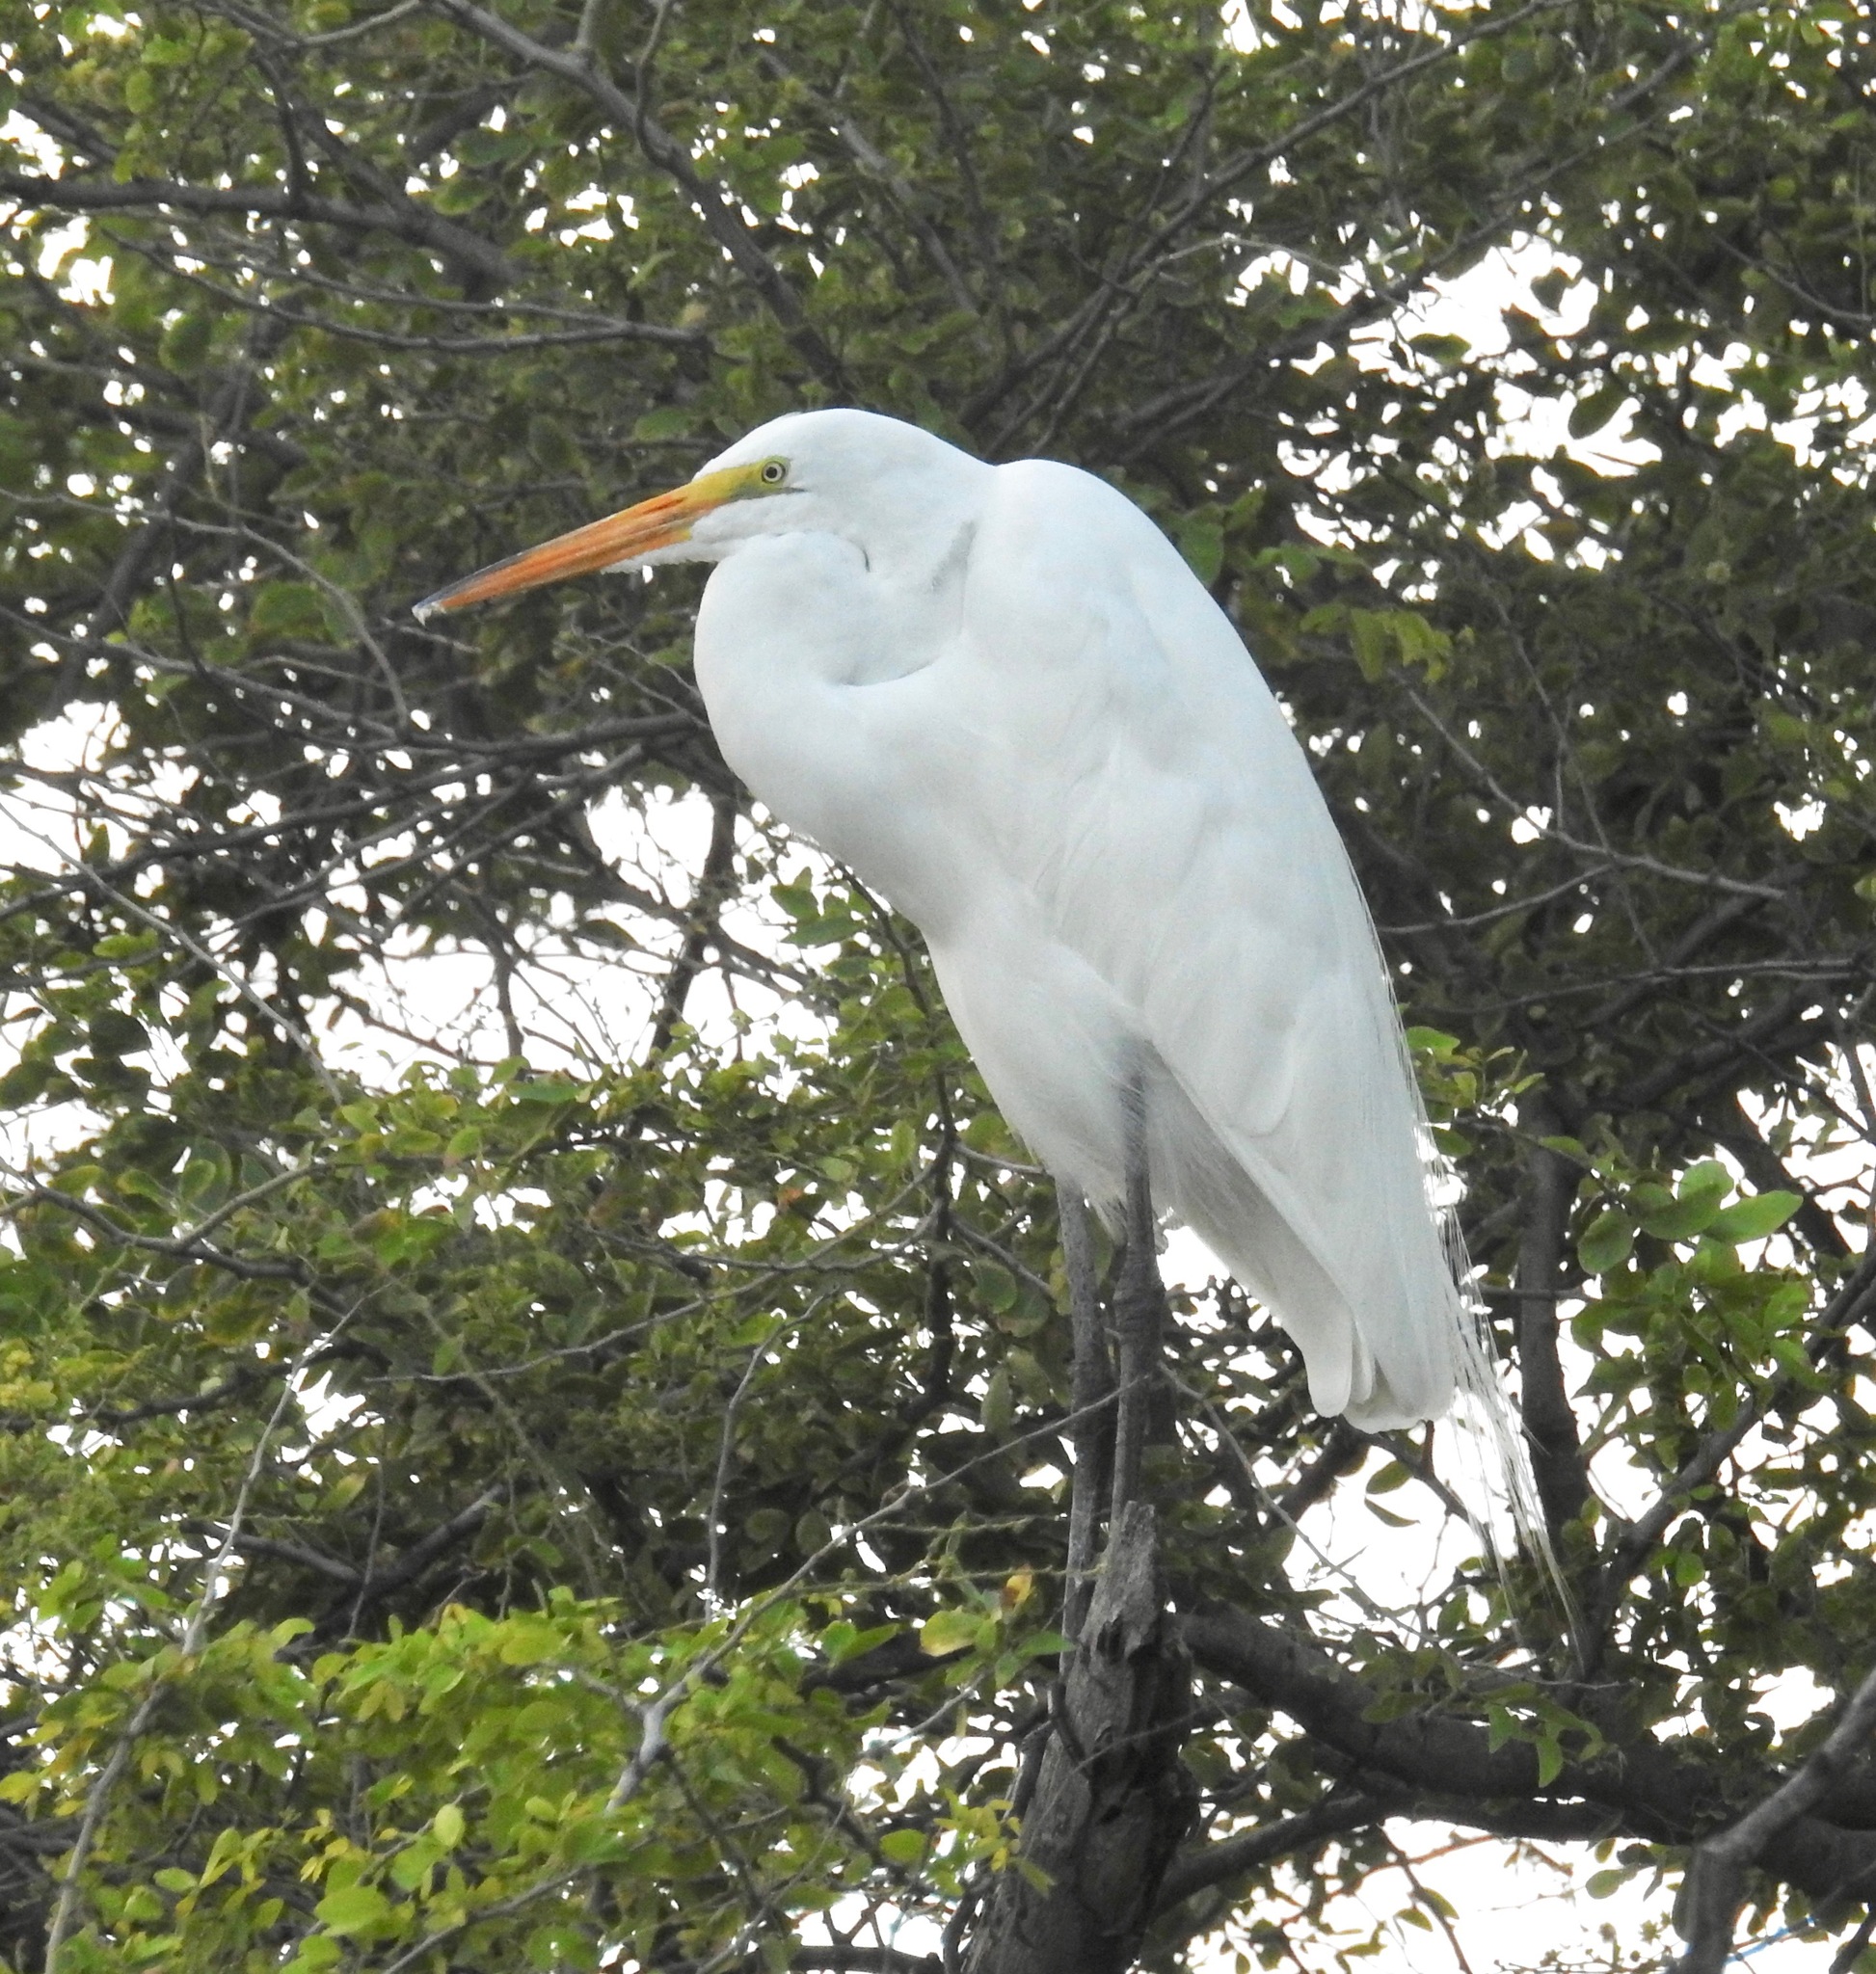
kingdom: Animalia
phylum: Chordata
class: Aves
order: Pelecaniformes
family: Ardeidae
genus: Ardea
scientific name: Ardea alba
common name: Great egret
